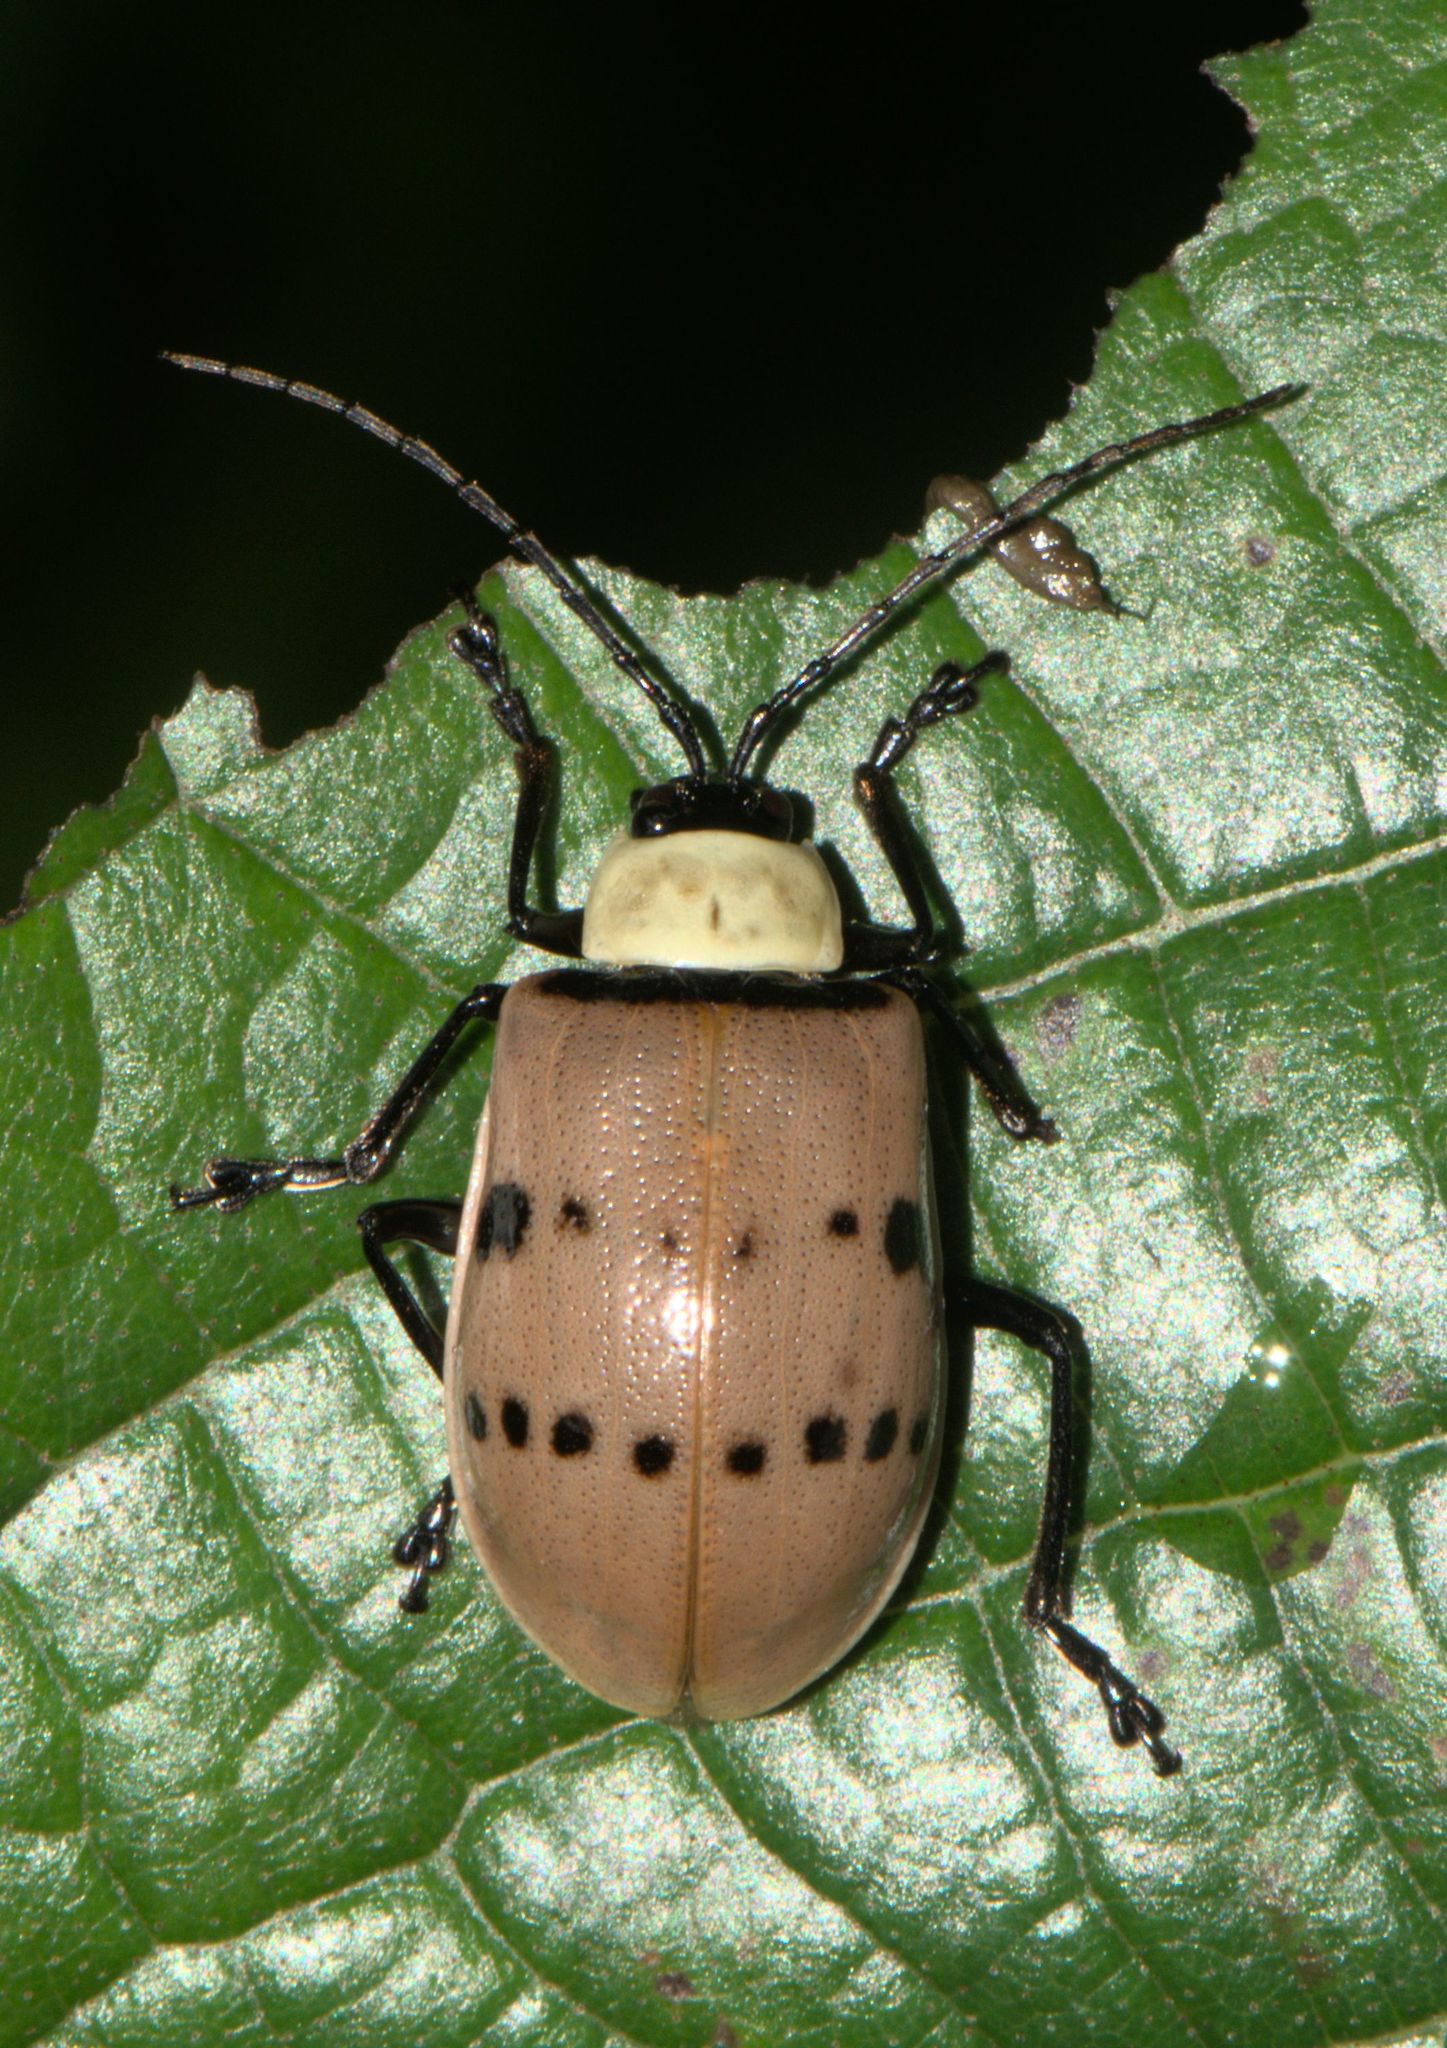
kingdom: Animalia
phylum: Arthropoda
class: Insecta
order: Coleoptera
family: Chrysomelidae
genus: Meristata
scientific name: Meristata
